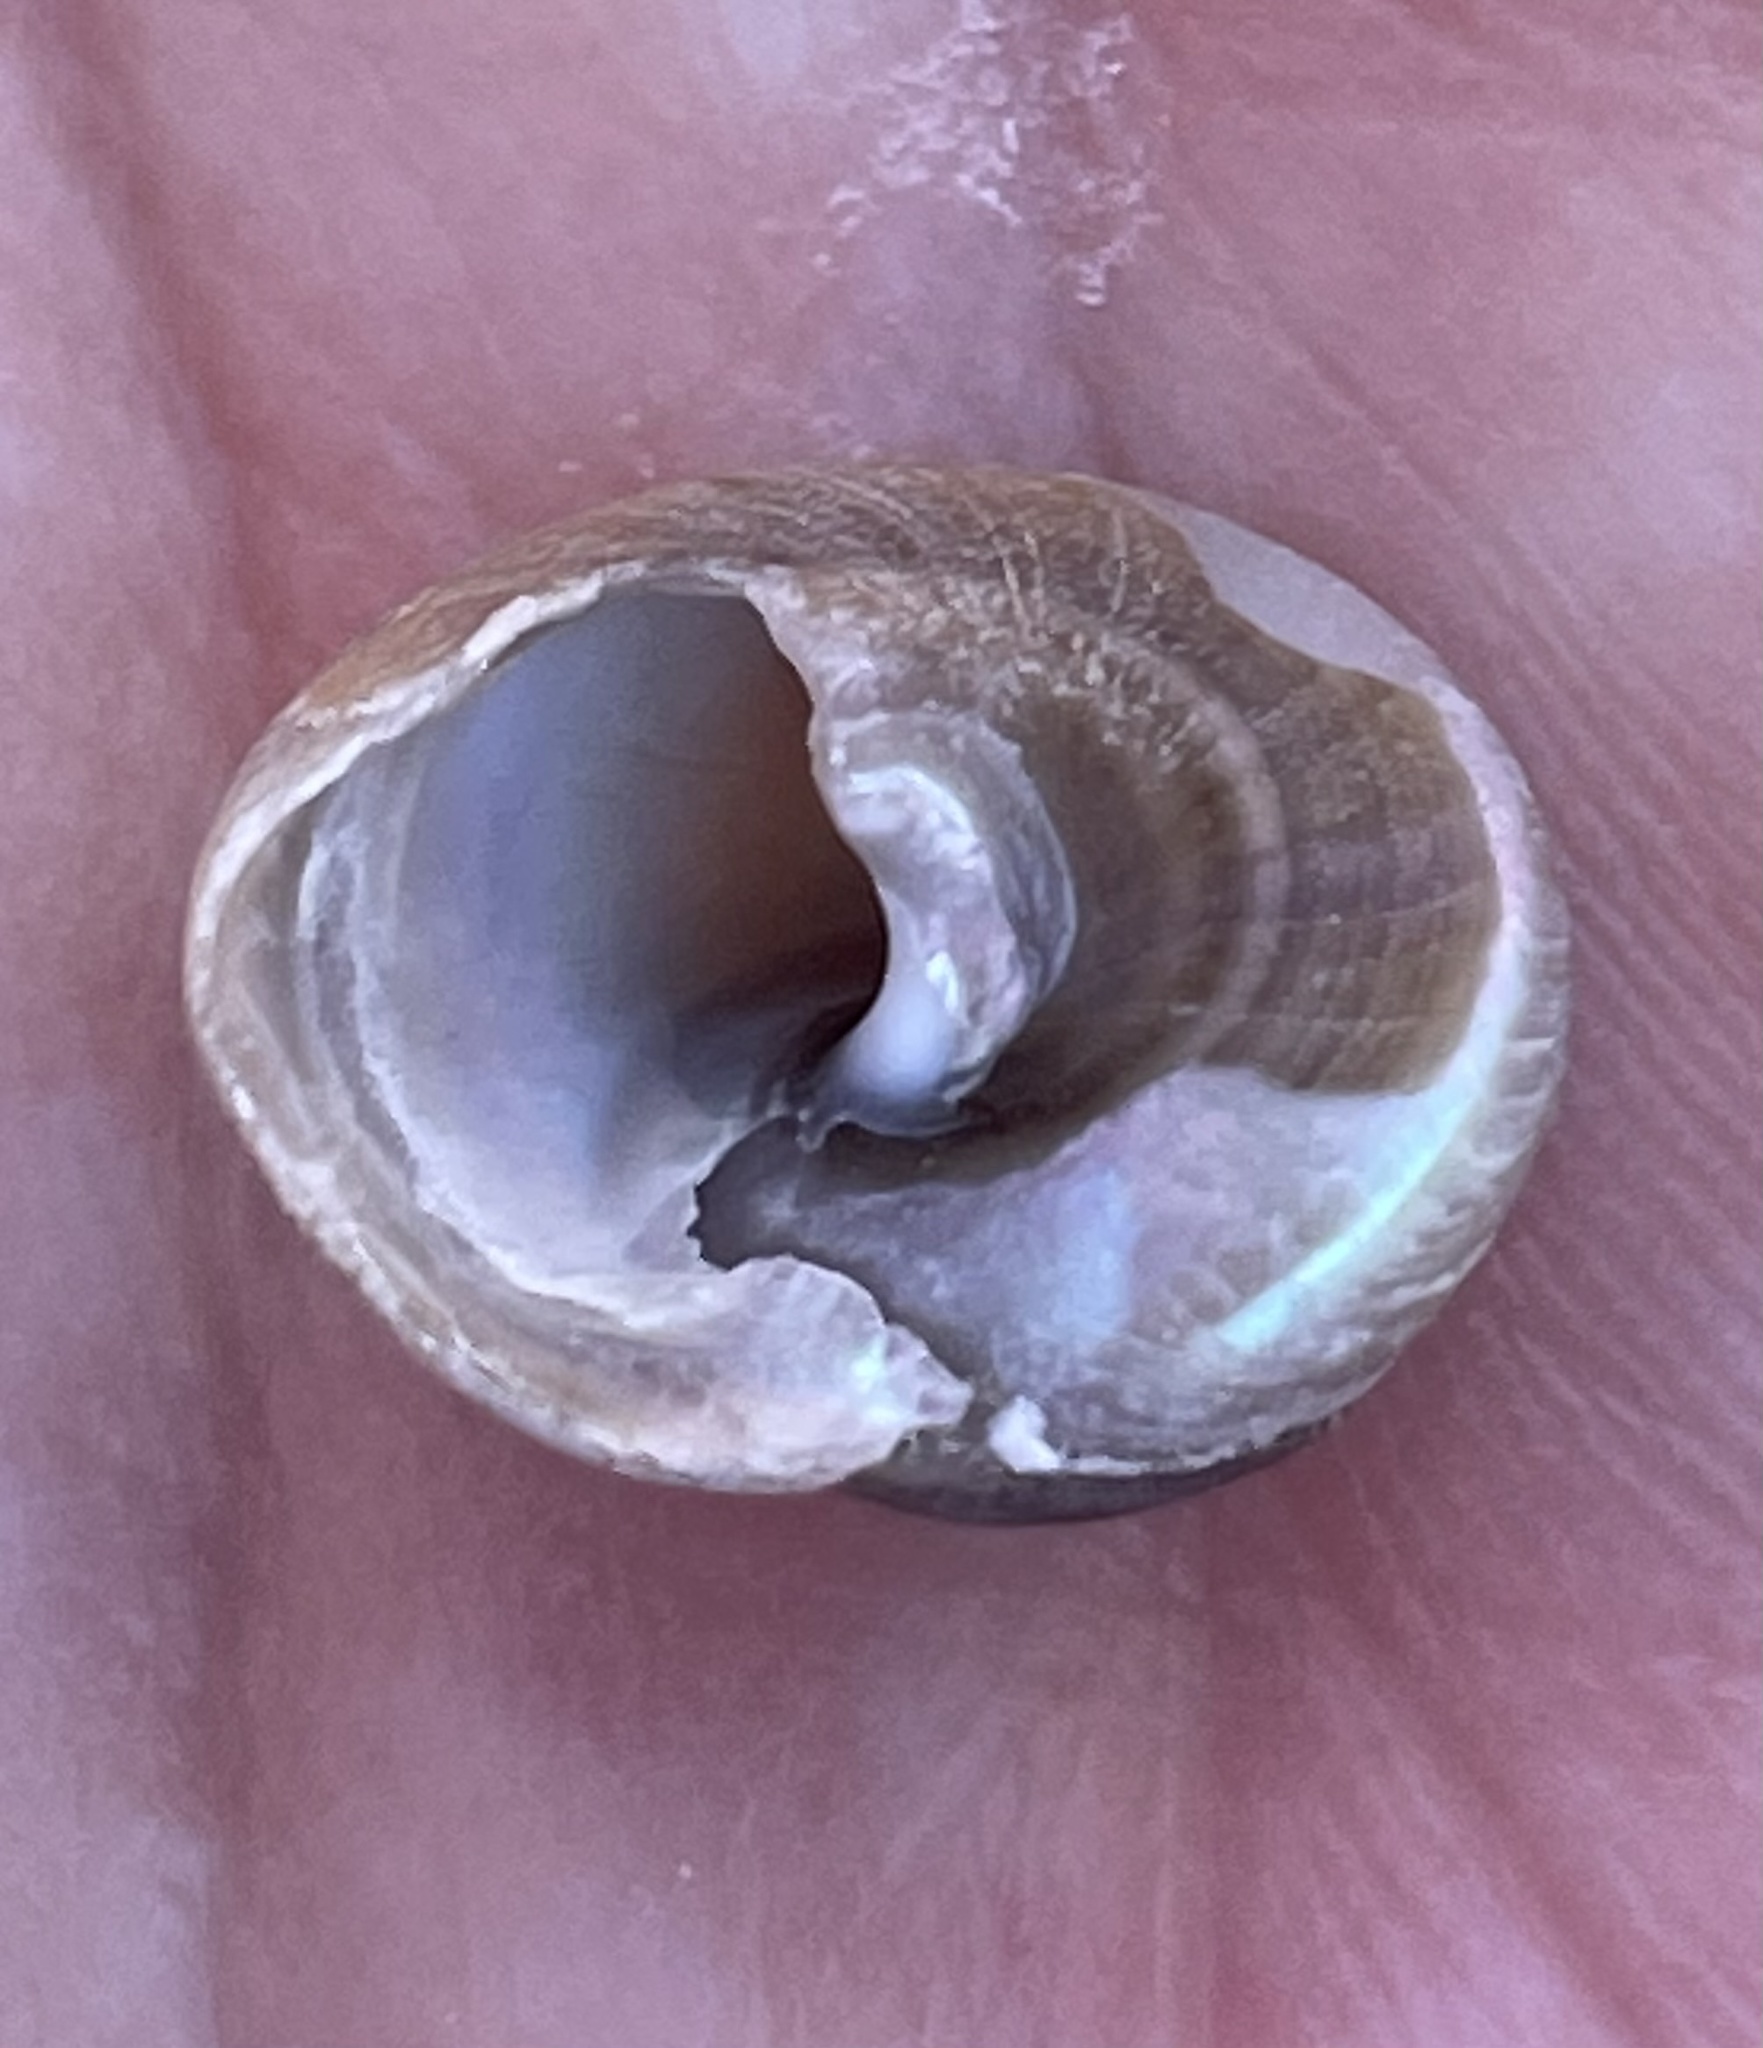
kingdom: Animalia
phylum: Mollusca
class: Gastropoda
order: Trochida
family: Tegulidae
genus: Tegula
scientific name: Tegula brunnea
